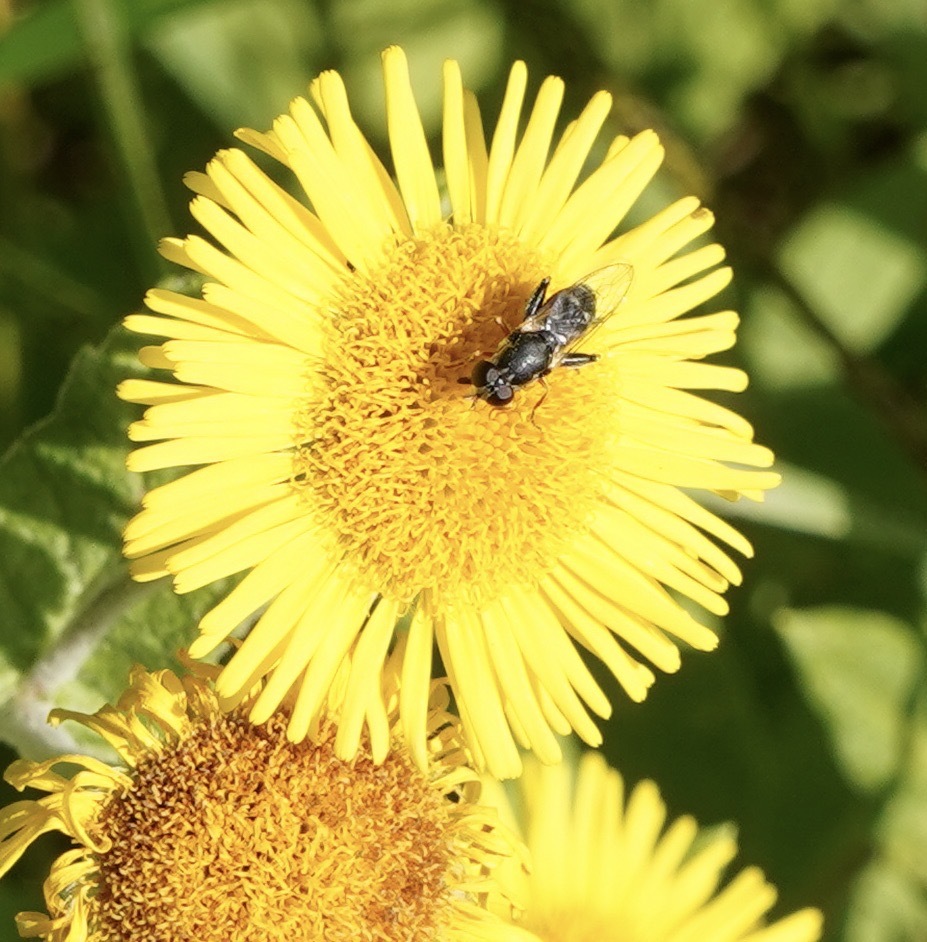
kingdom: Animalia
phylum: Arthropoda
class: Insecta
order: Diptera
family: Syrphidae
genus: Syritta
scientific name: Syritta pipiens
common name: Hover fly
